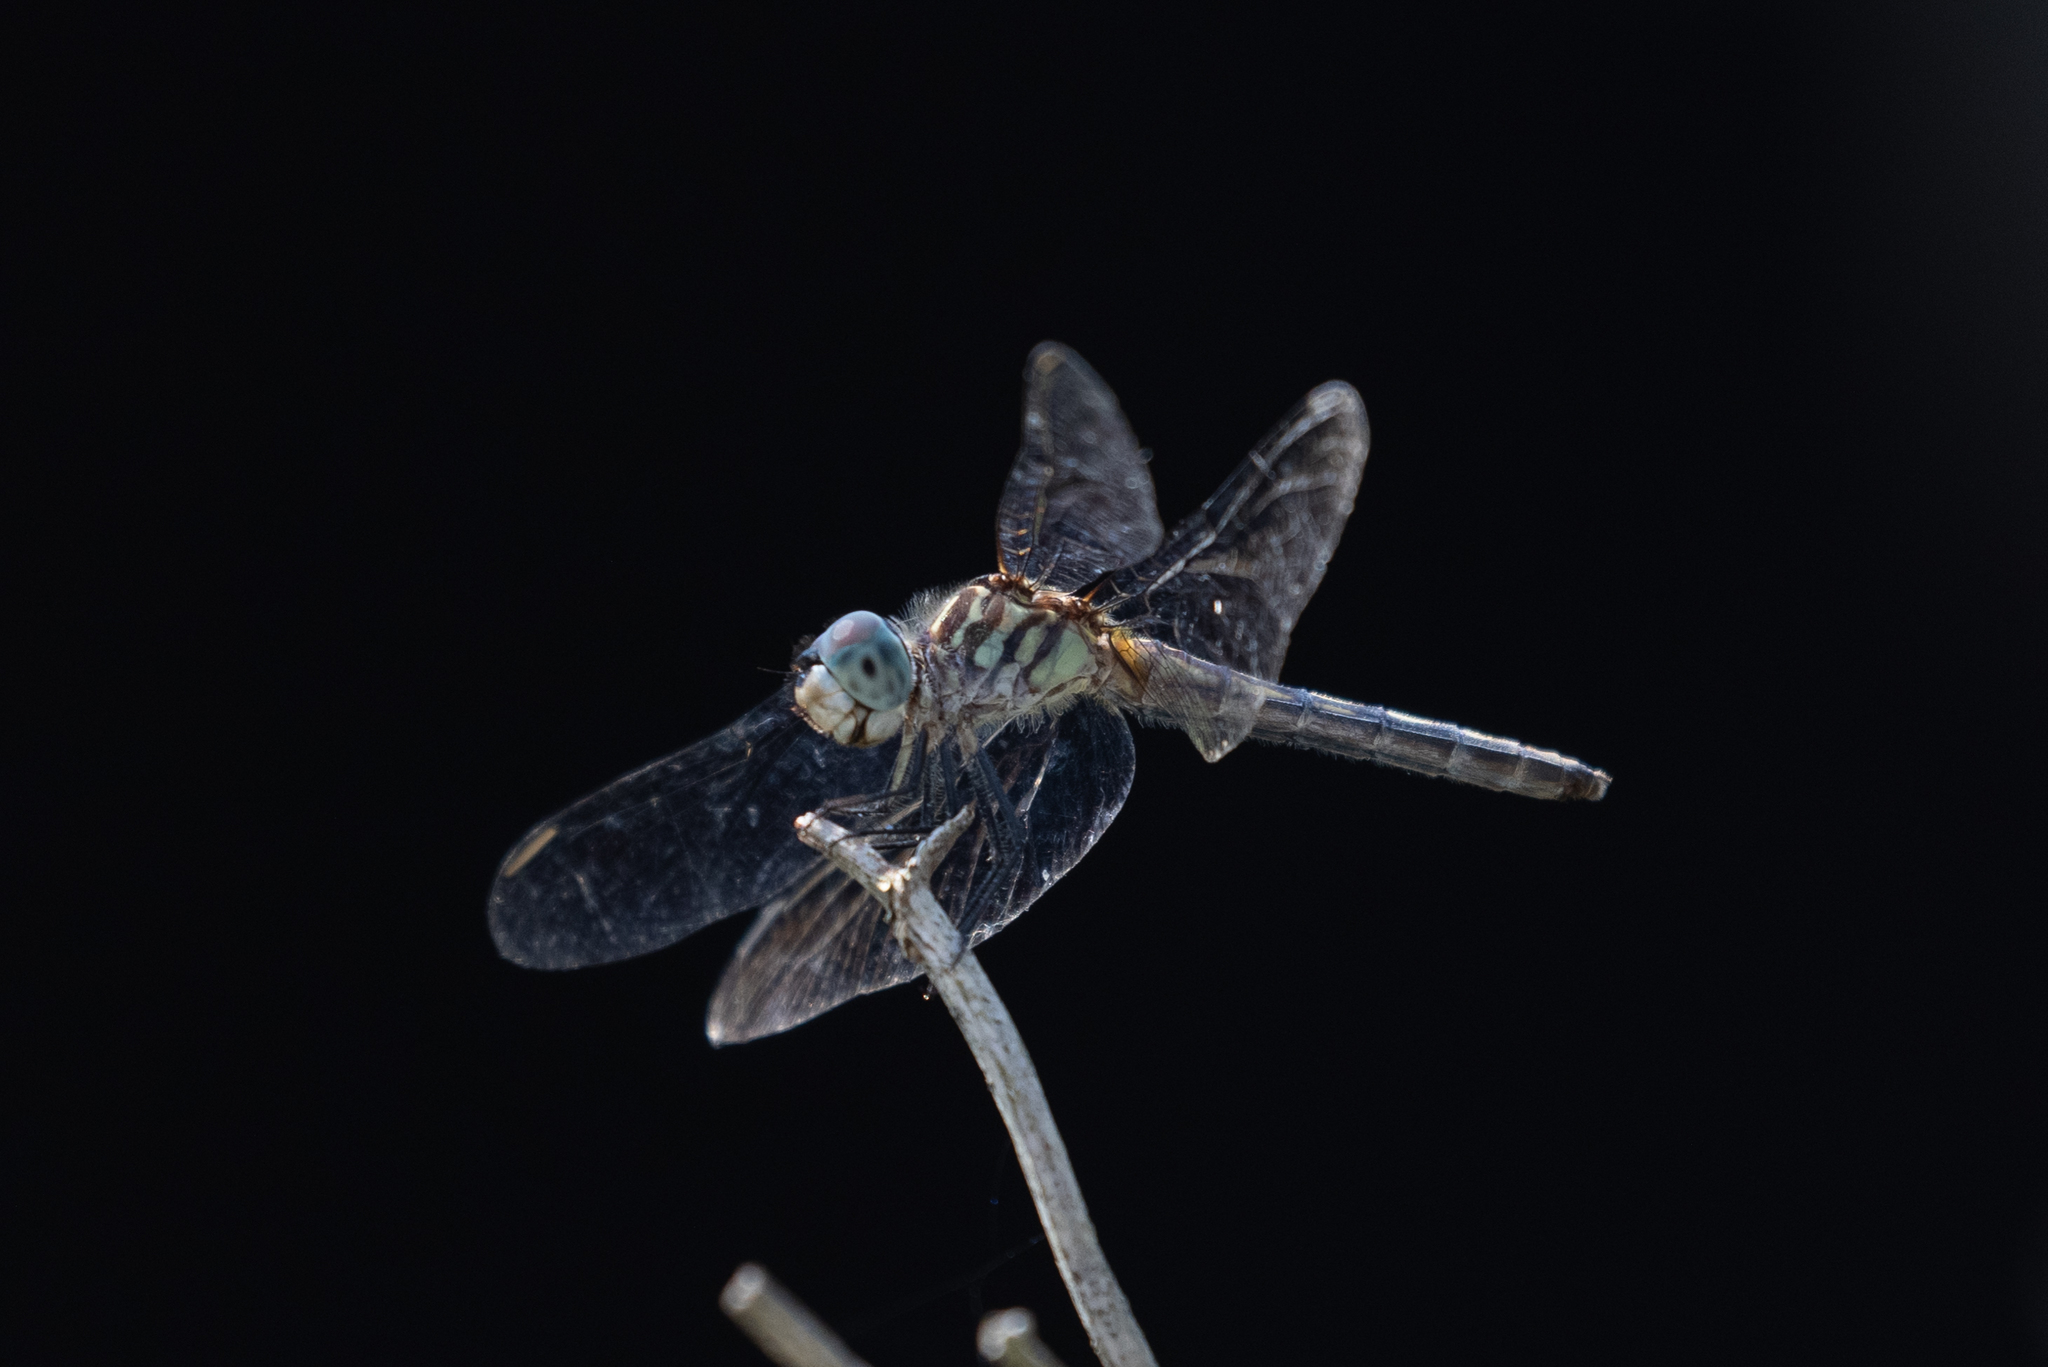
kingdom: Animalia
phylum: Arthropoda
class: Insecta
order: Odonata
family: Libellulidae
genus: Pachydiplax
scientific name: Pachydiplax longipennis
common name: Blue dasher
